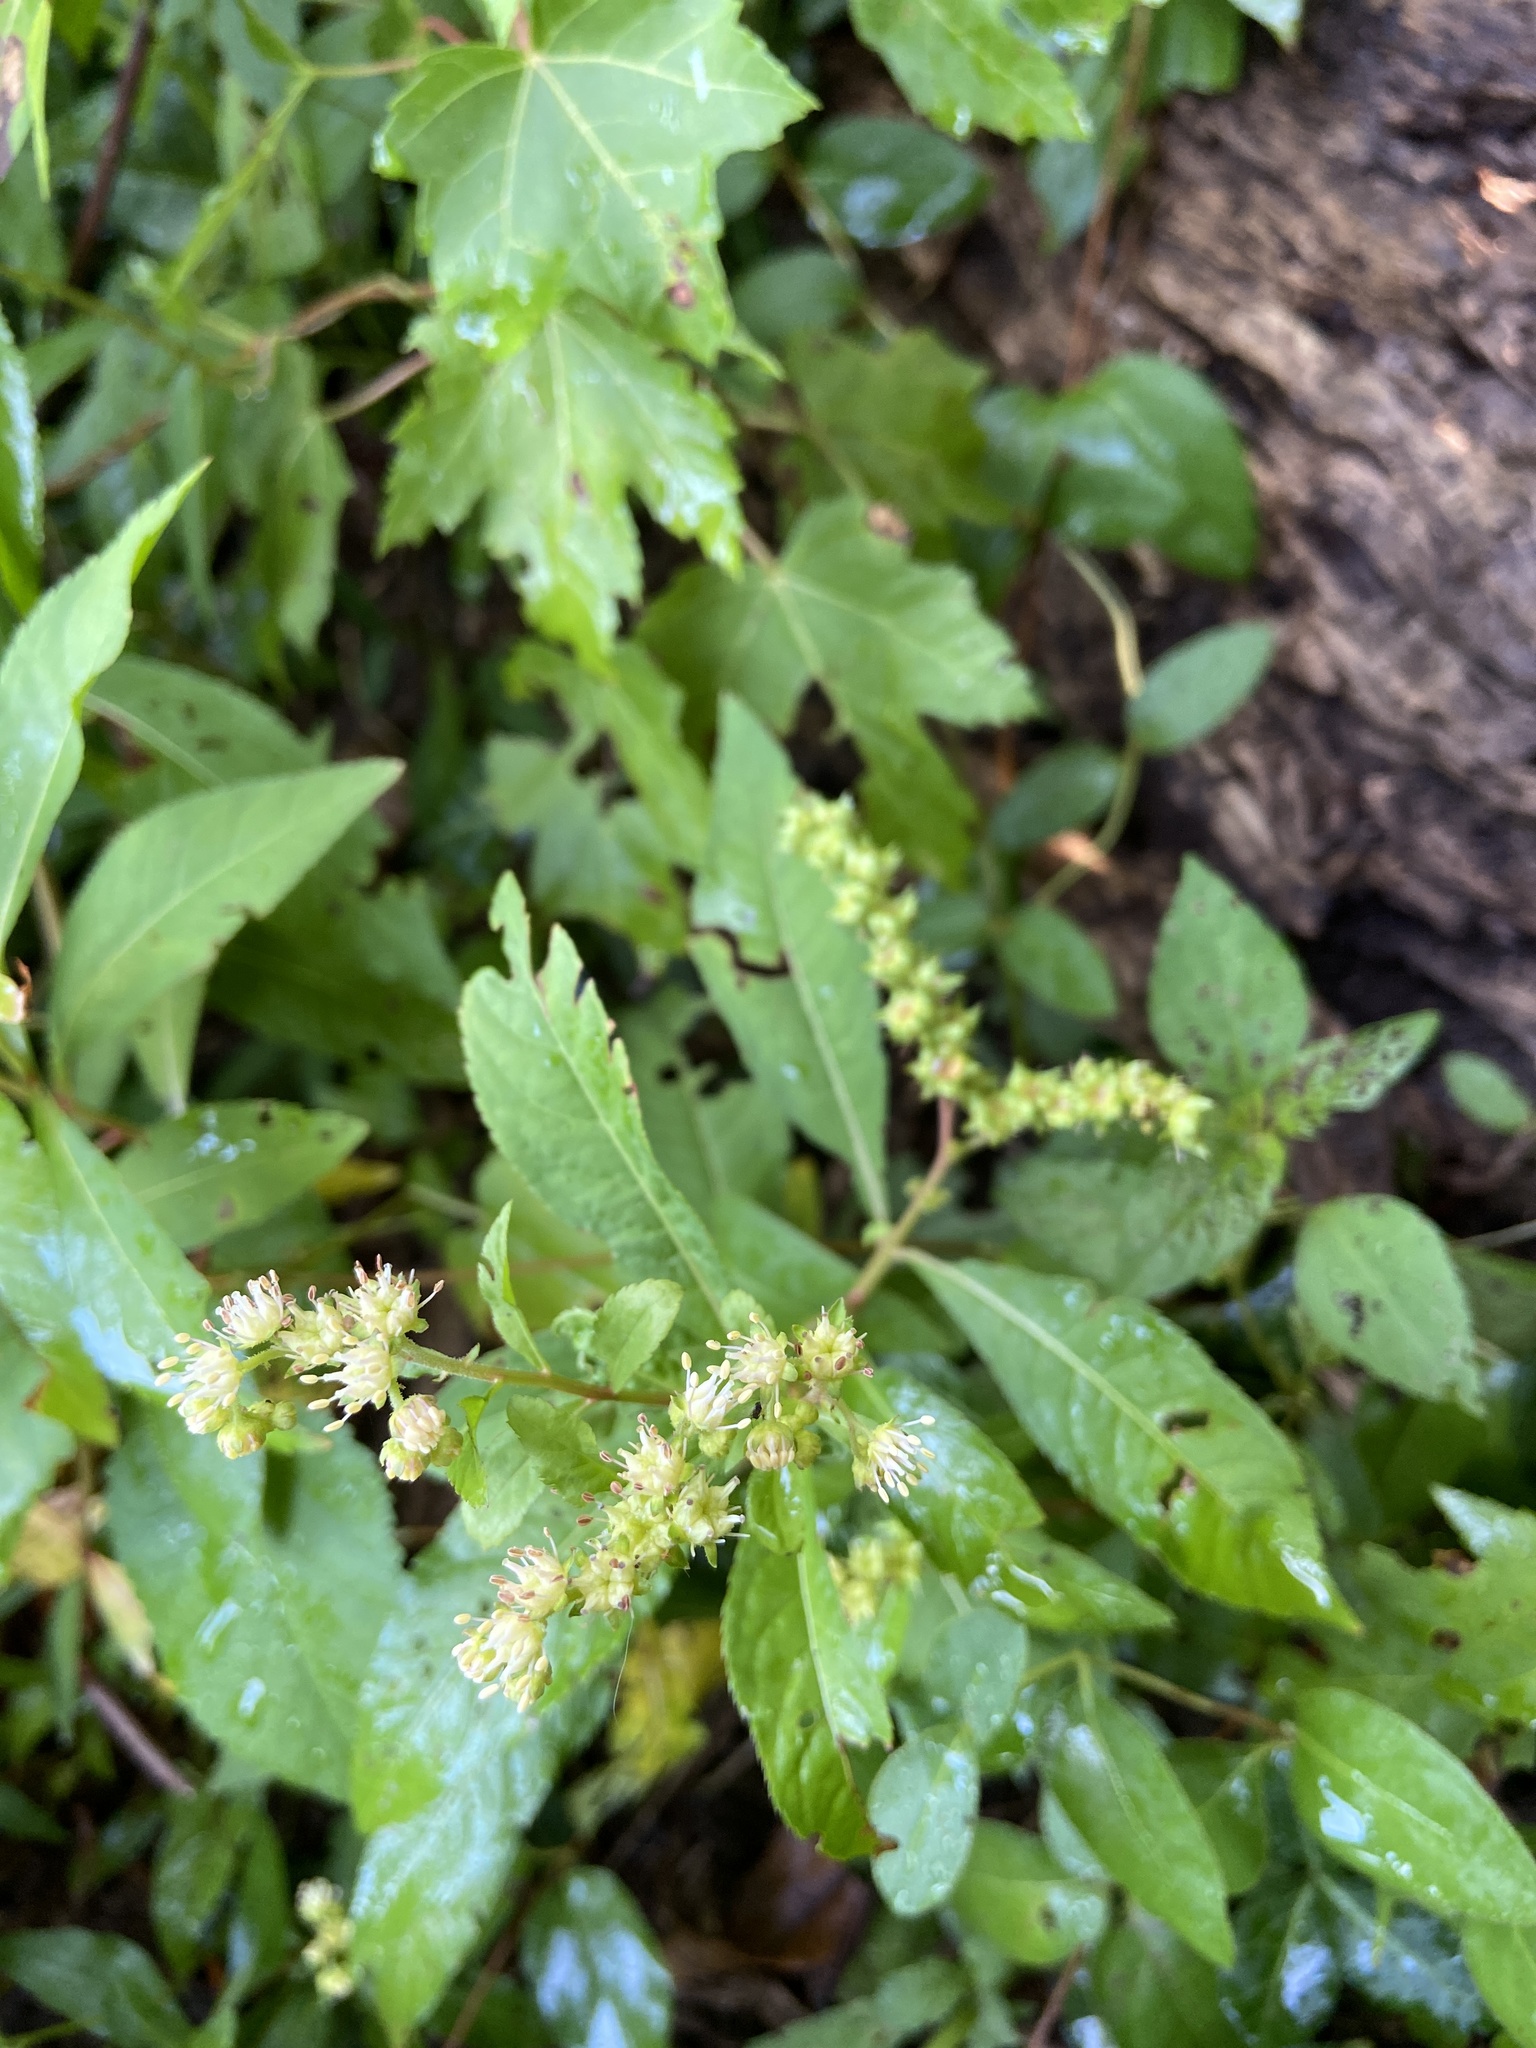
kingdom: Plantae
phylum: Tracheophyta
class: Magnoliopsida
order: Saxifragales
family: Penthoraceae
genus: Penthorum
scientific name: Penthorum sedoides
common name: Ditch stonecrop
